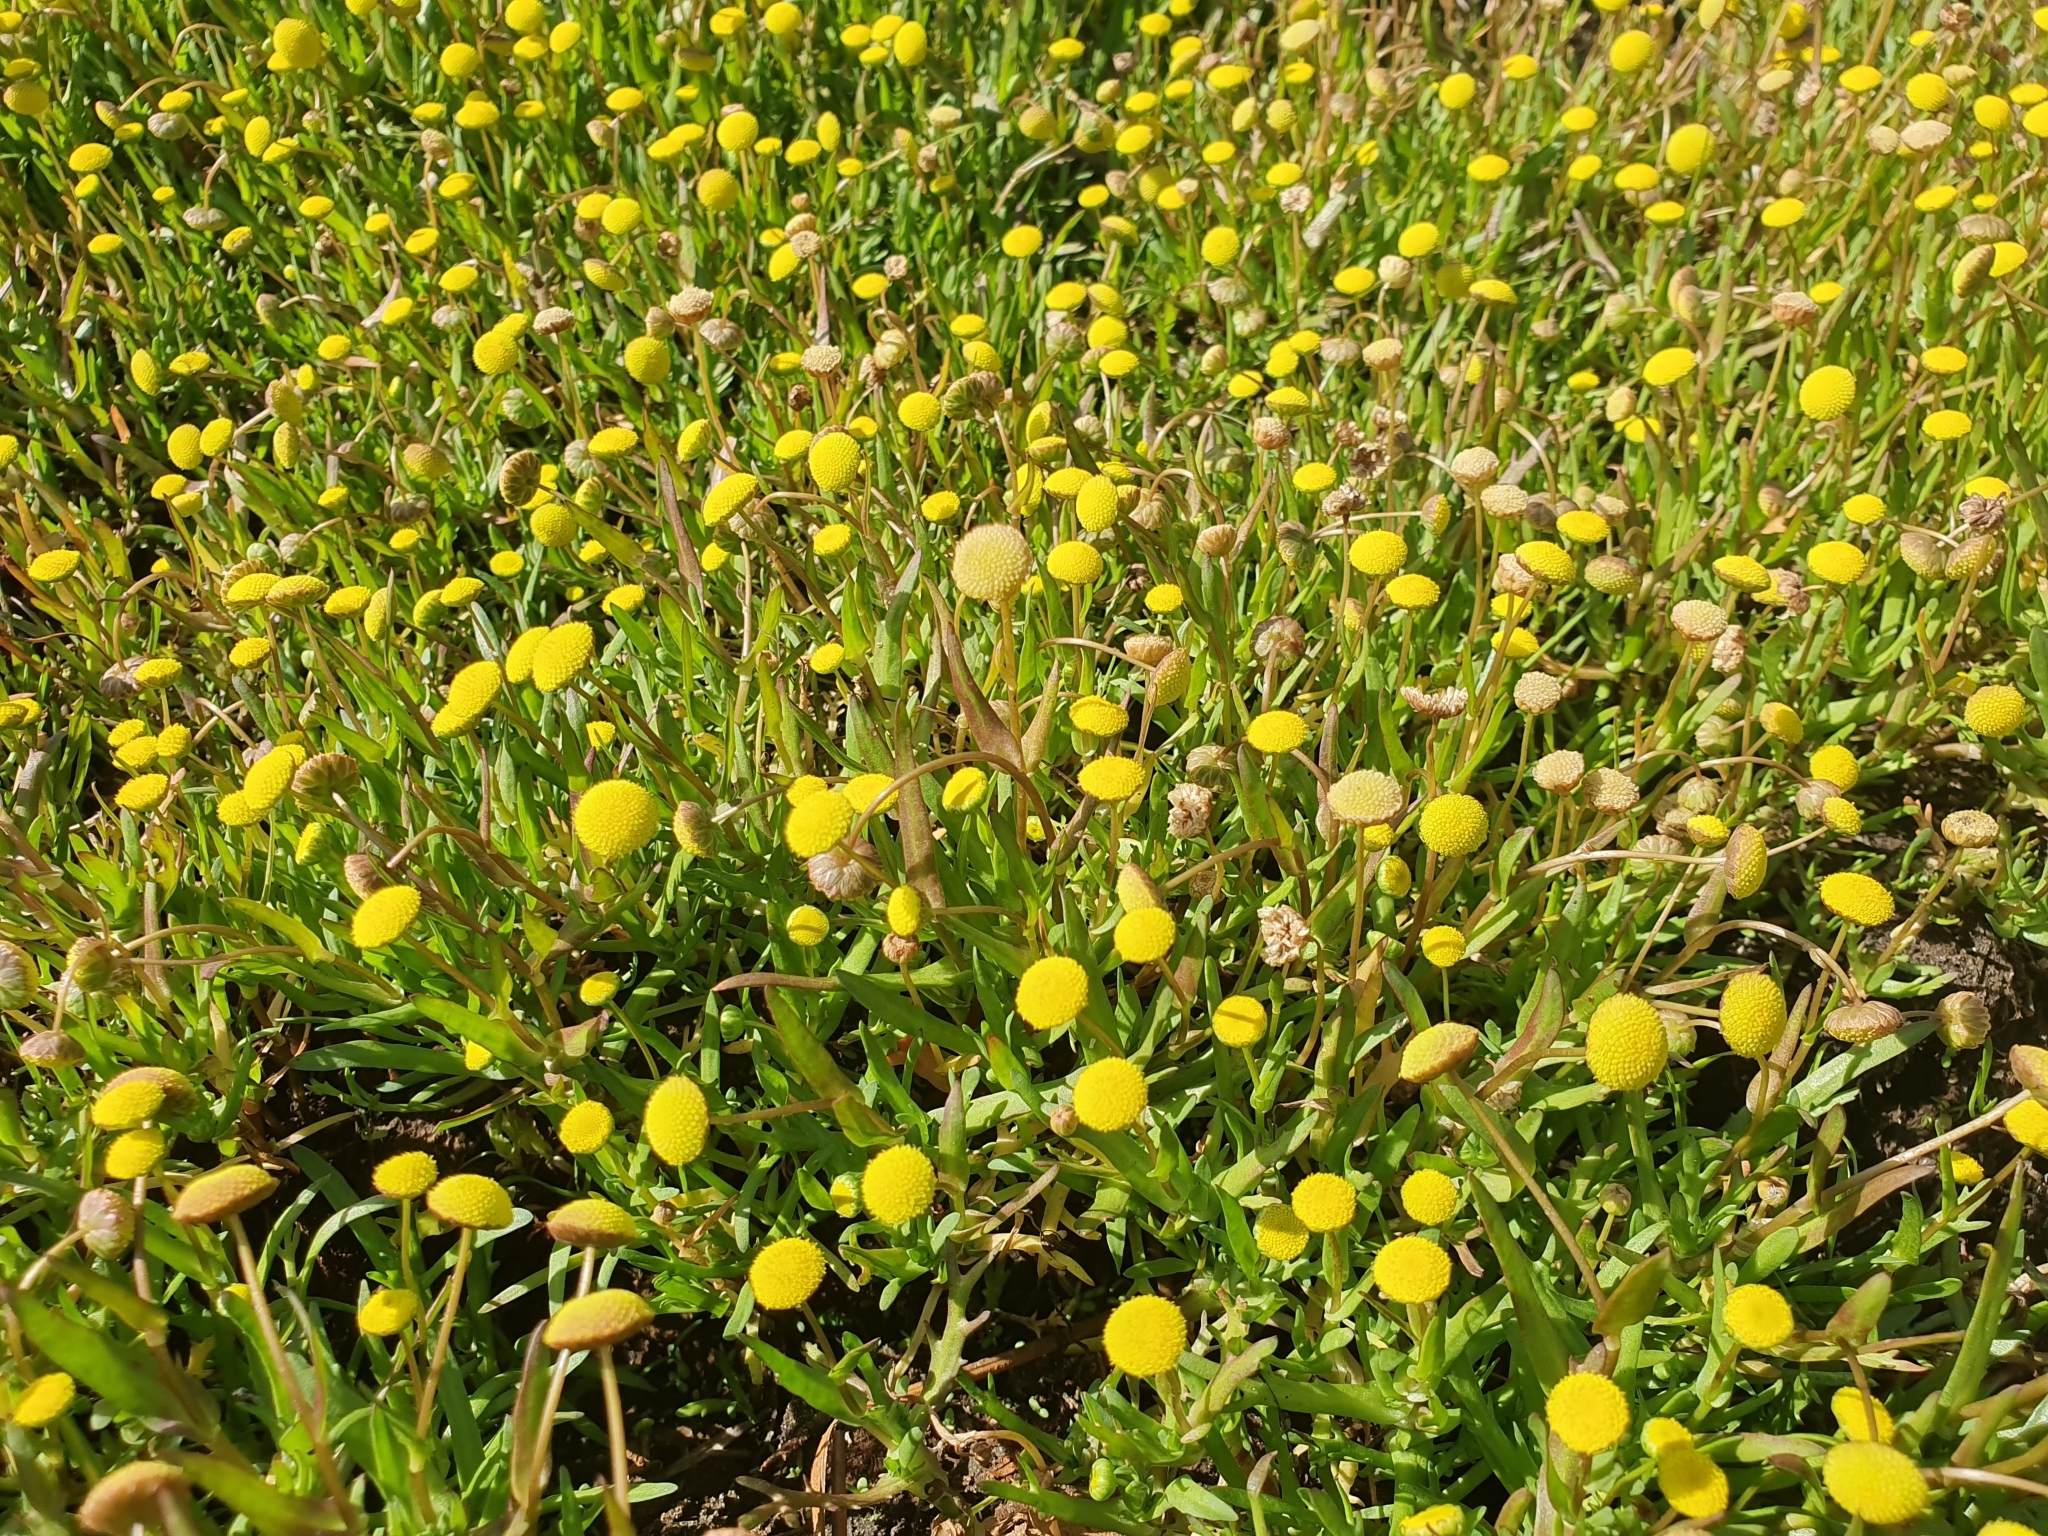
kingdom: Plantae
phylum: Tracheophyta
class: Magnoliopsida
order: Asterales
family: Asteraceae
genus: Cotula
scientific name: Cotula coronopifolia
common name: Buttonweed
